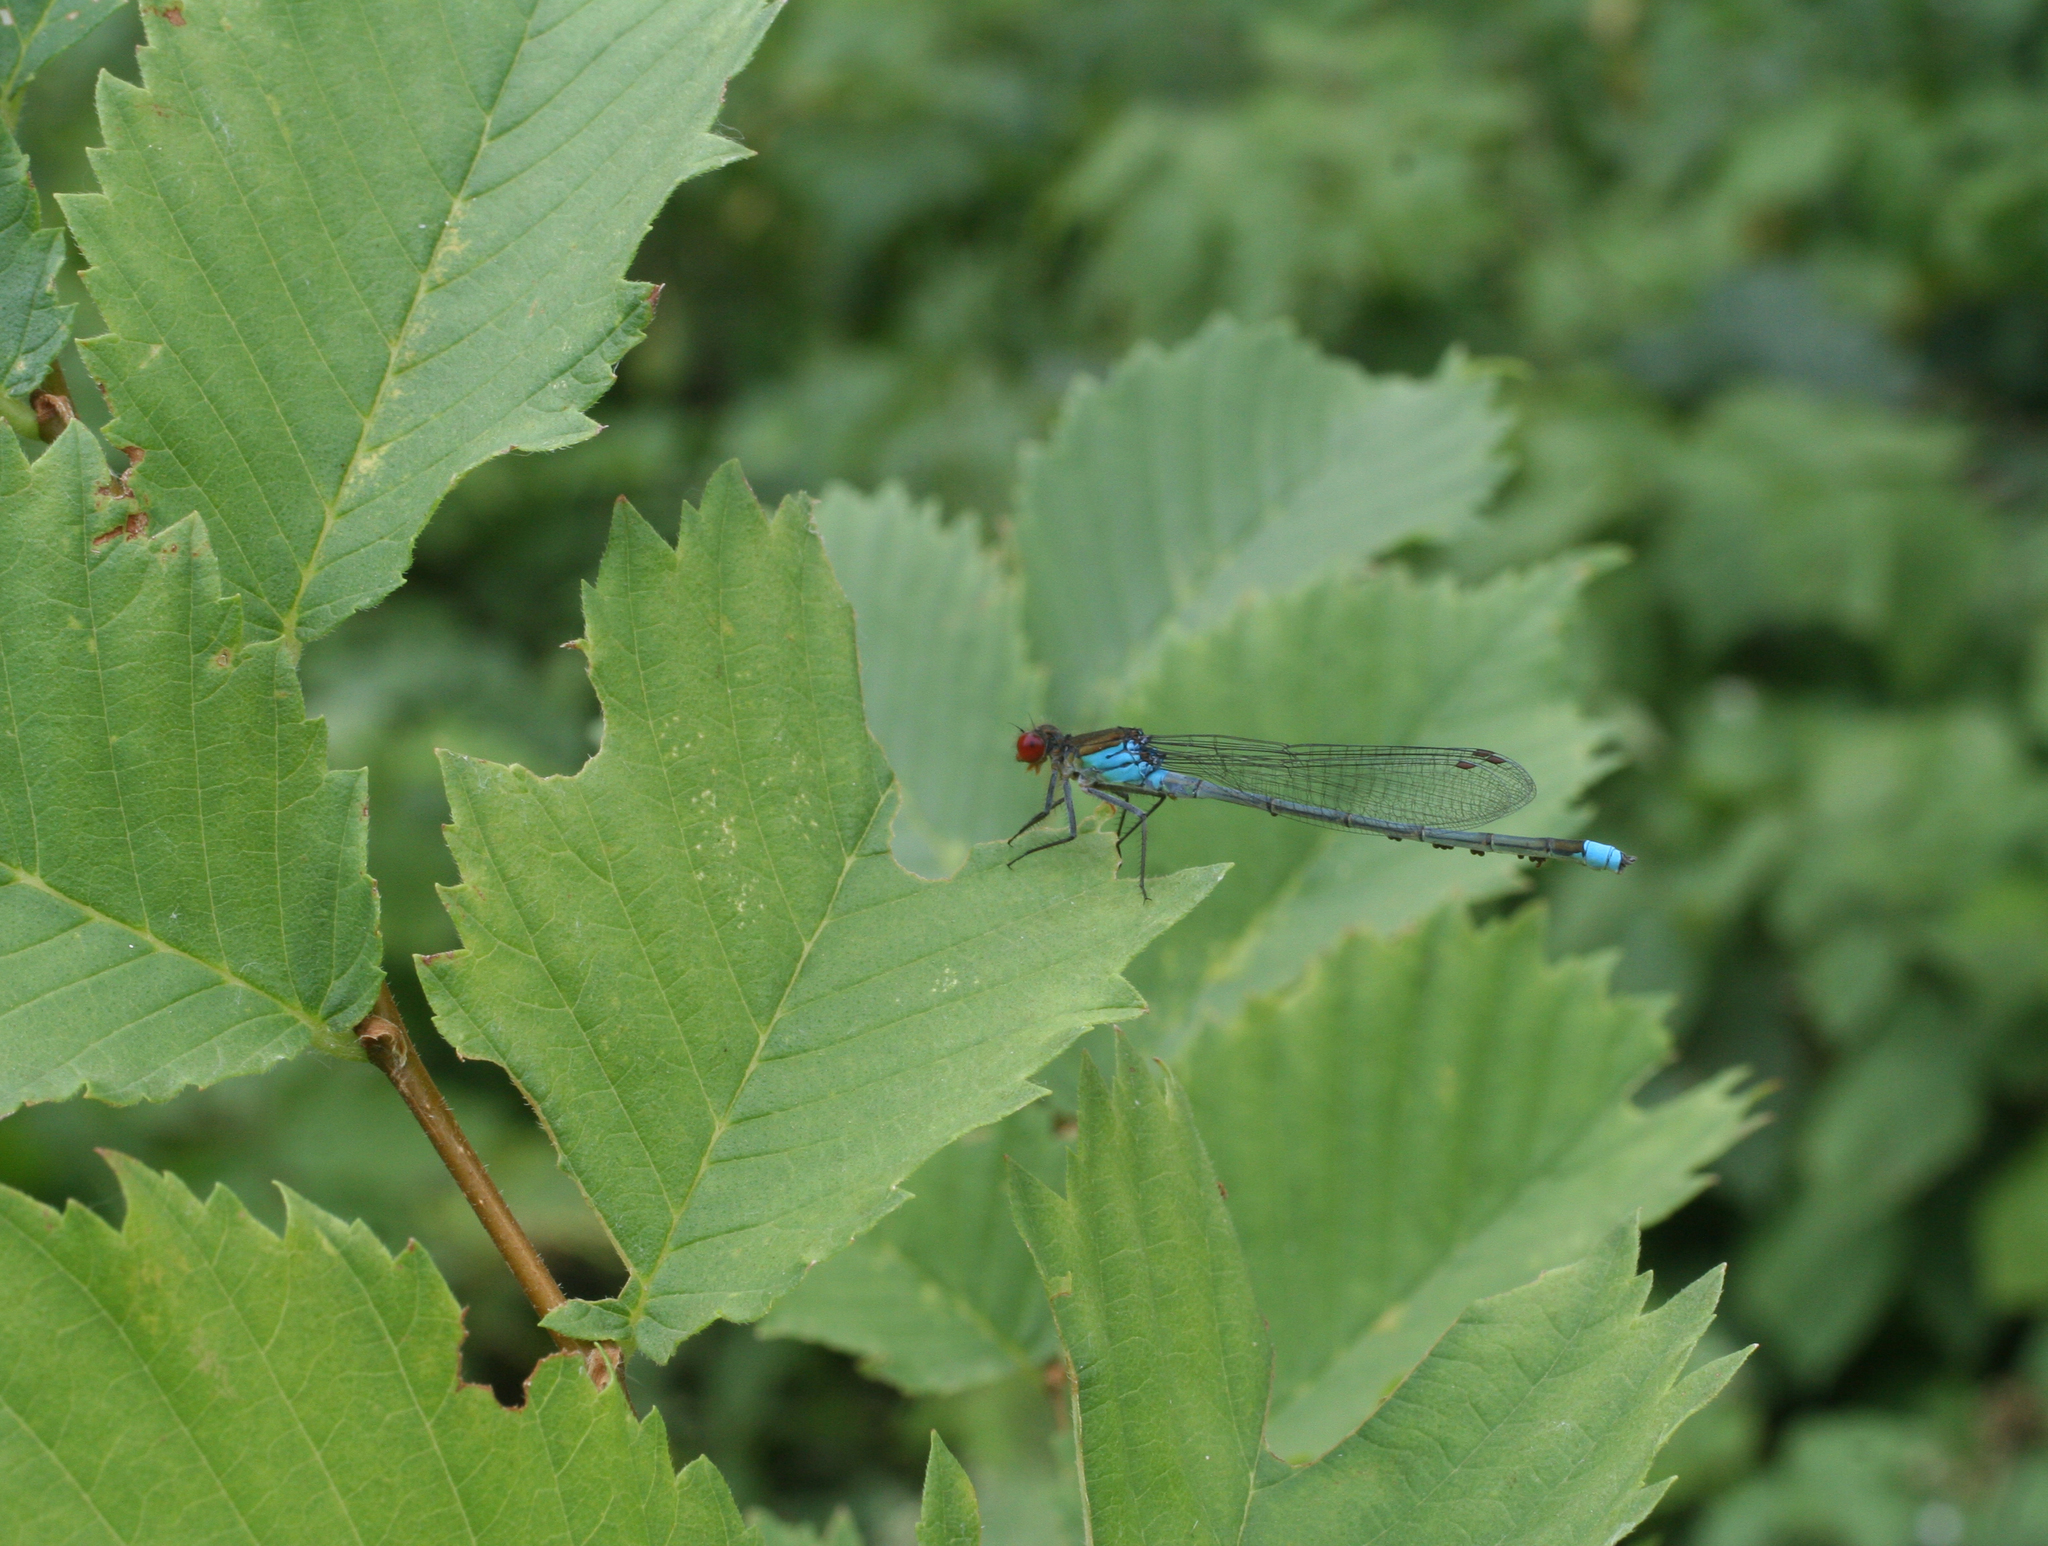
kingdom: Plantae
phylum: Tracheophyta
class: Magnoliopsida
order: Fagales
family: Betulaceae
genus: Corylus
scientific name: Corylus avellana
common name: European hazel
